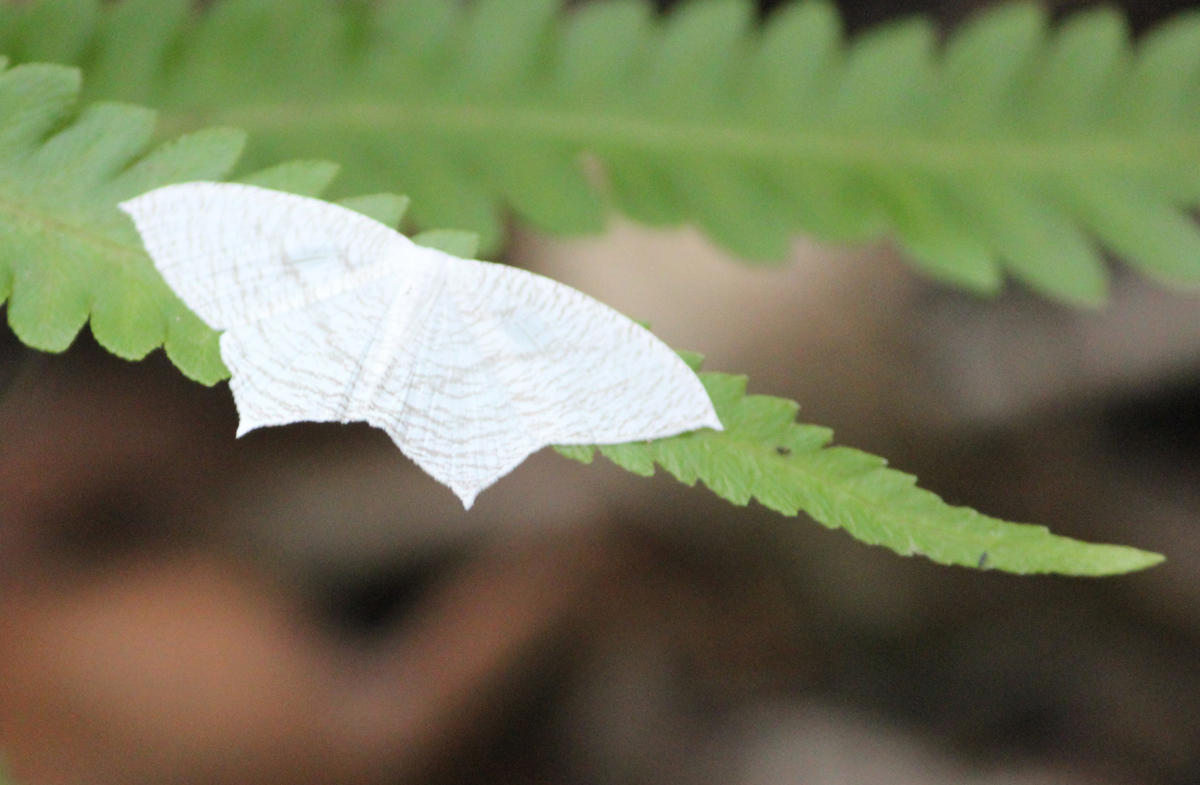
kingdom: Animalia
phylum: Arthropoda
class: Insecta
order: Lepidoptera
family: Uraniidae
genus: Acropteris
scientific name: Acropteris illiturata
